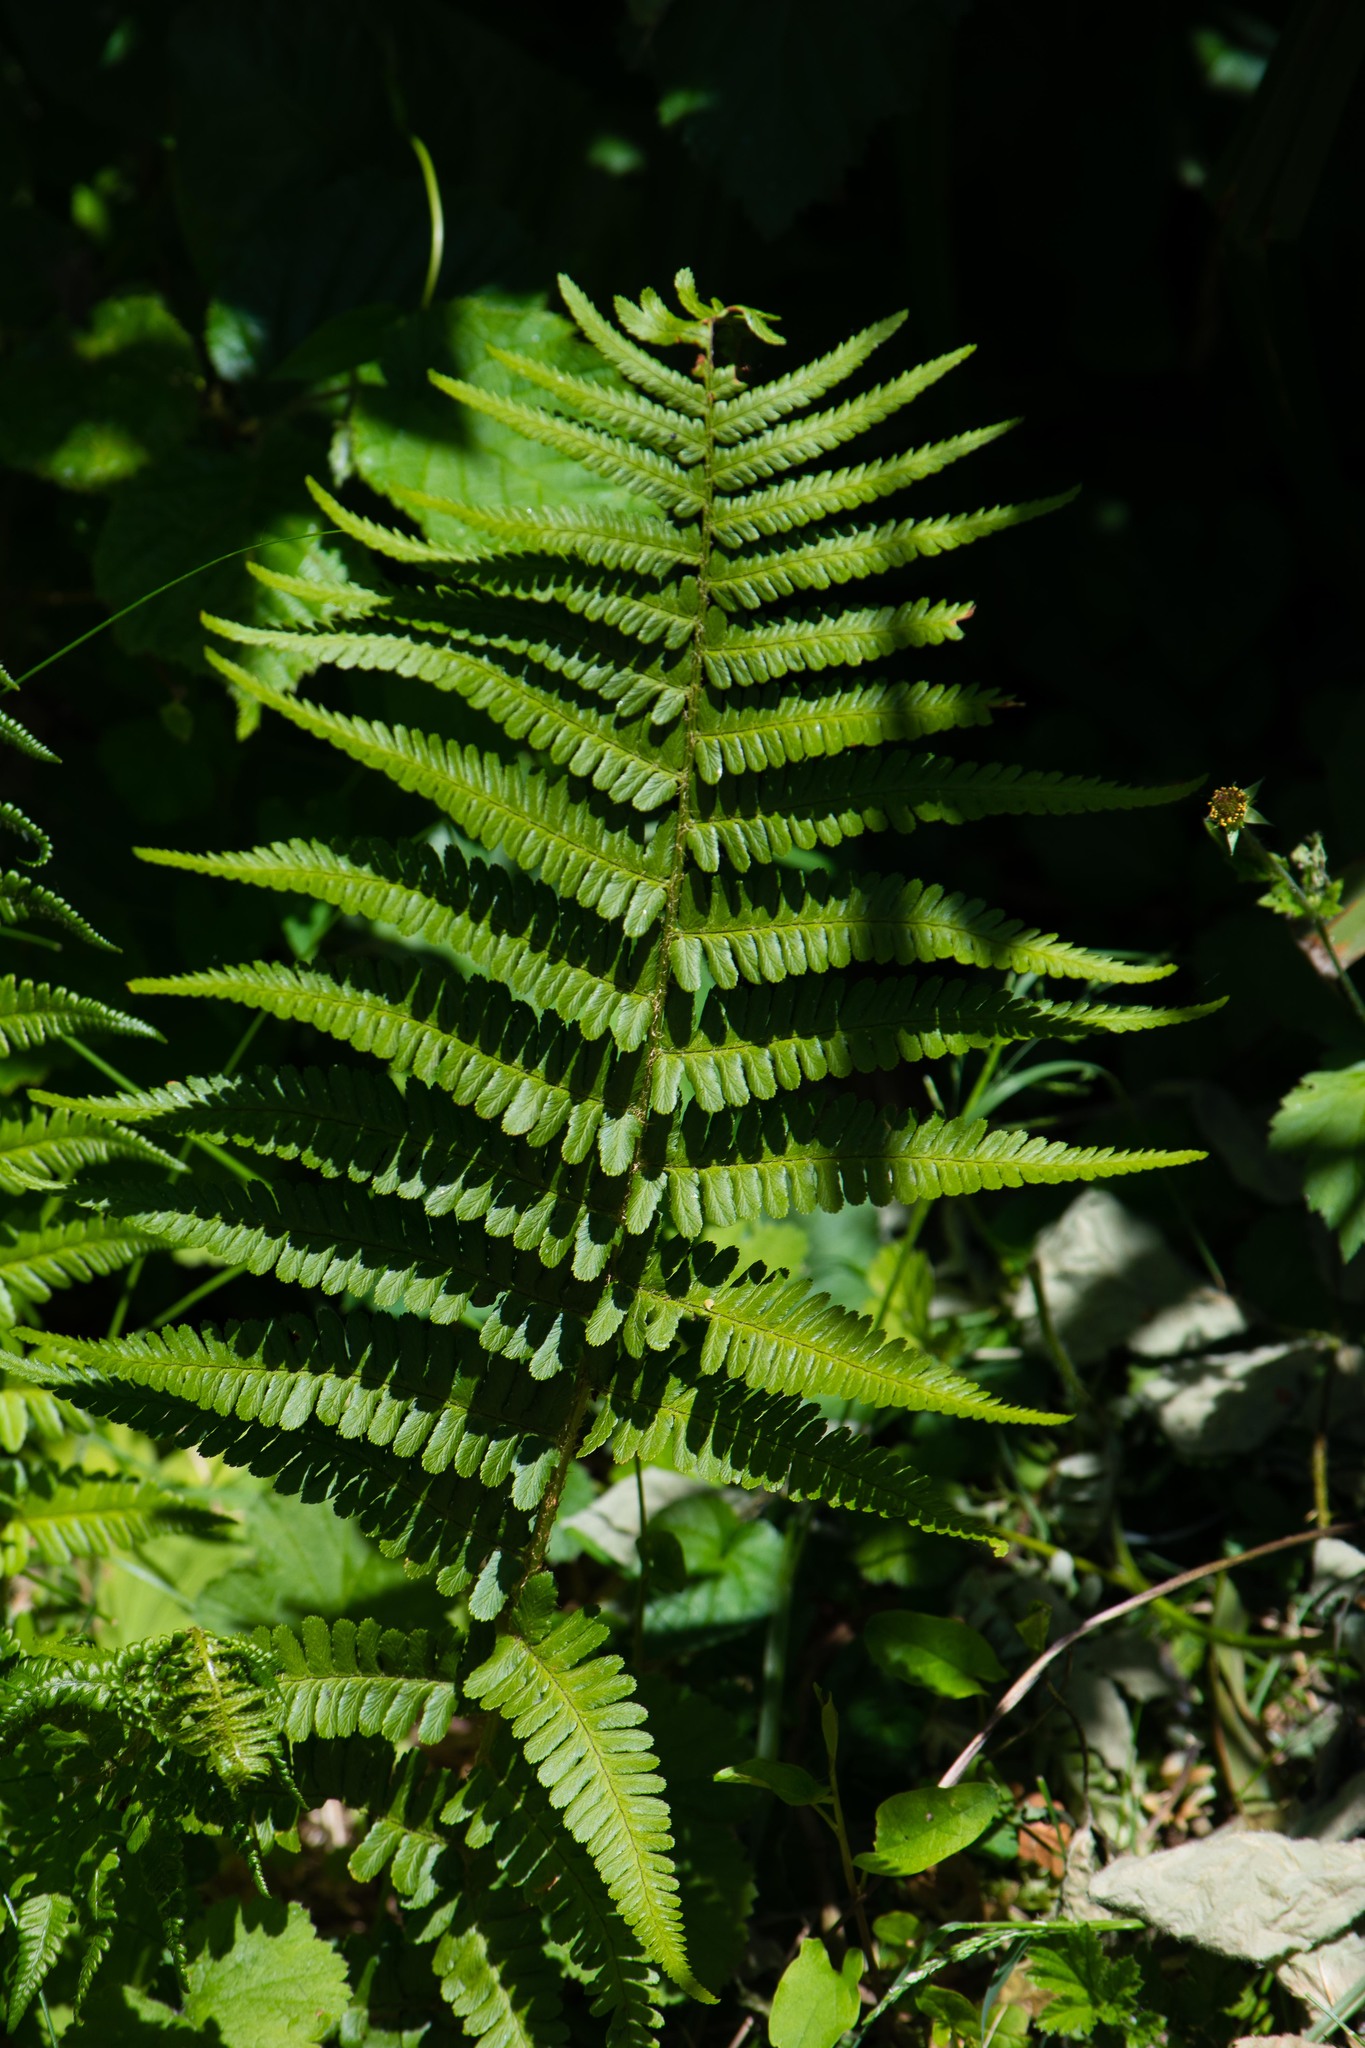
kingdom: Plantae
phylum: Tracheophyta
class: Polypodiopsida
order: Polypodiales
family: Dryopteridaceae
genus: Dryopteris
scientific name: Dryopteris filix-mas
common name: Male fern
